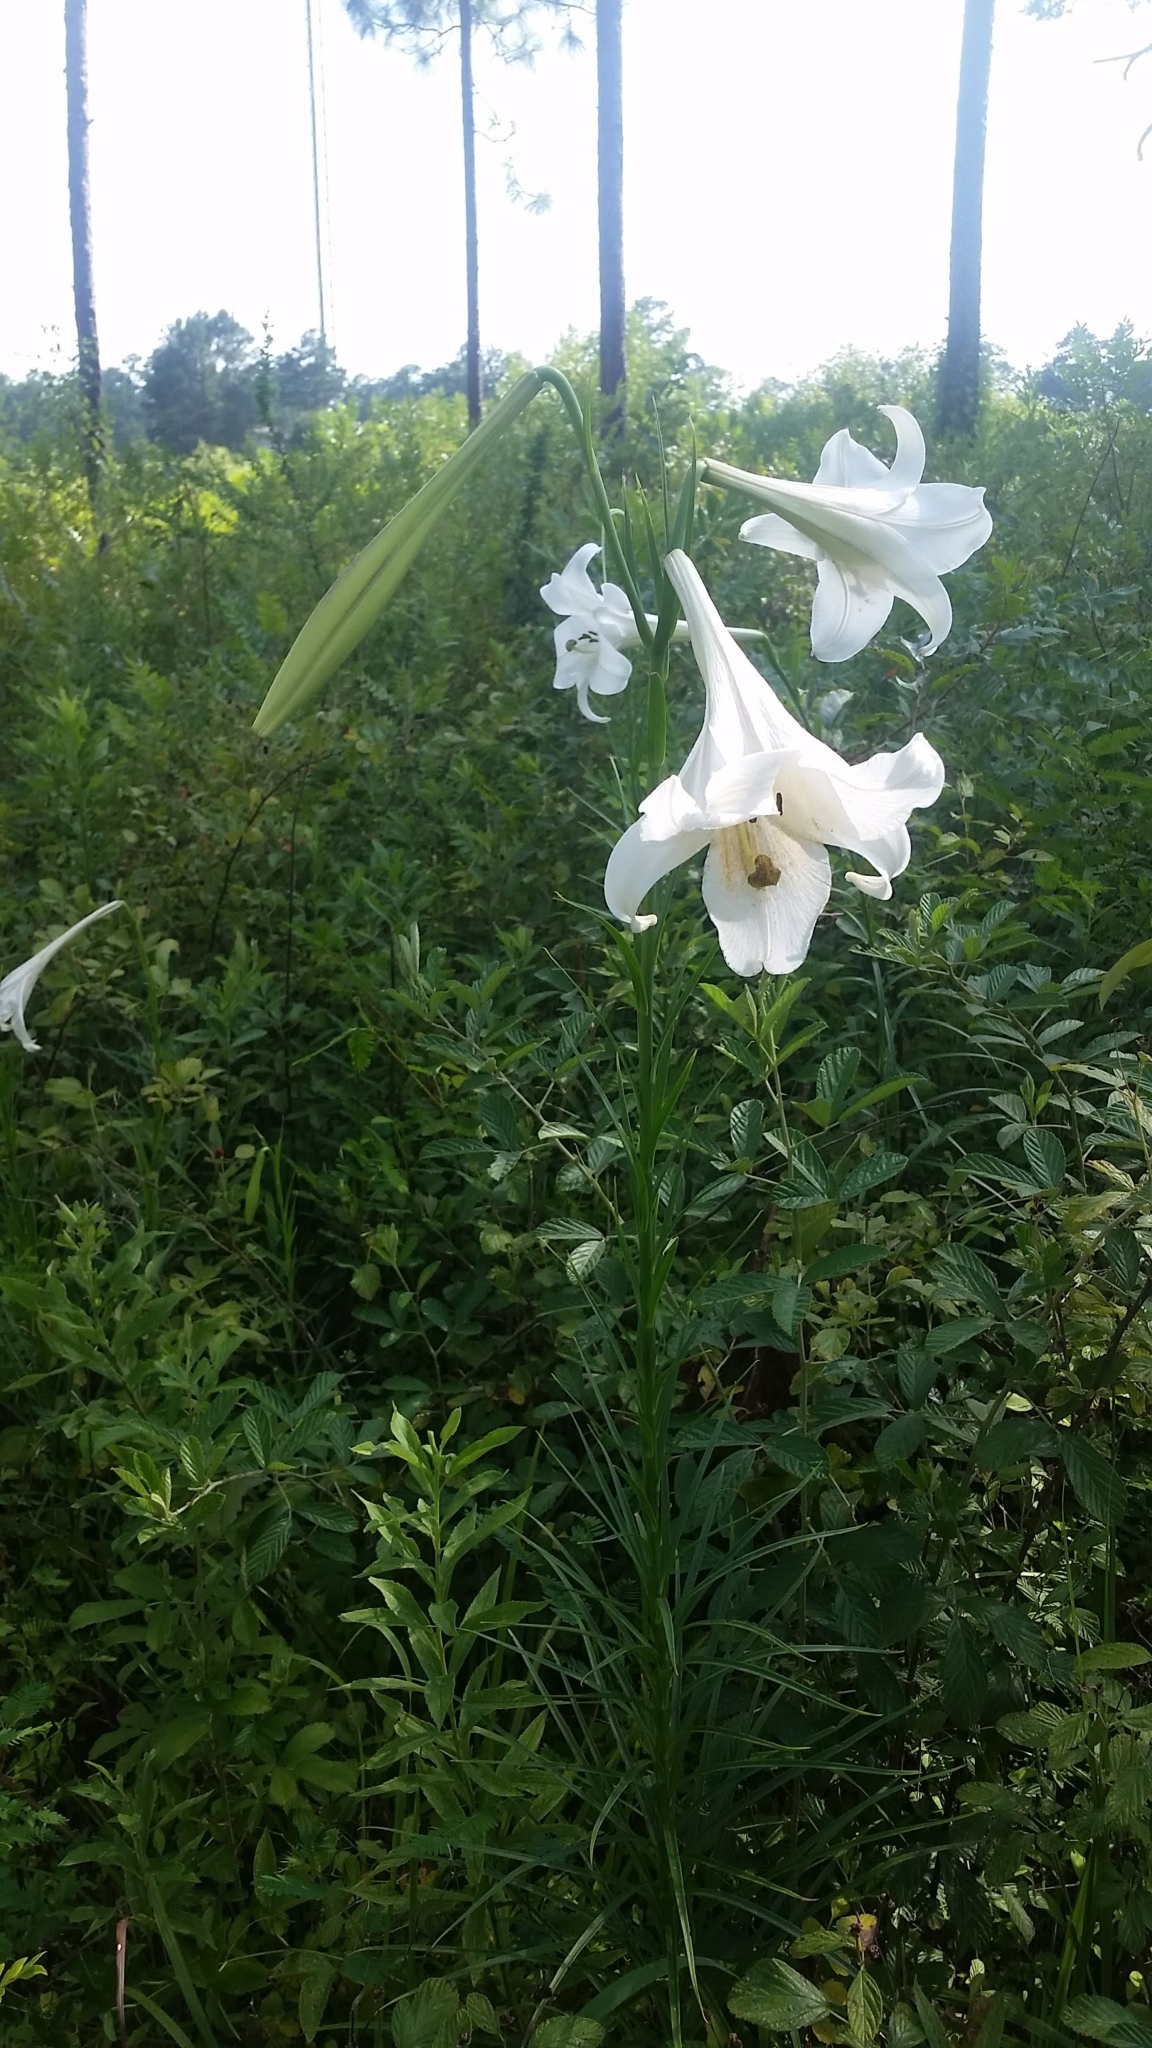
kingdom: Plantae
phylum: Tracheophyta
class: Liliopsida
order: Liliales
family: Liliaceae
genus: Lilium
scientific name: Lilium formosanum
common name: Formosa lily
